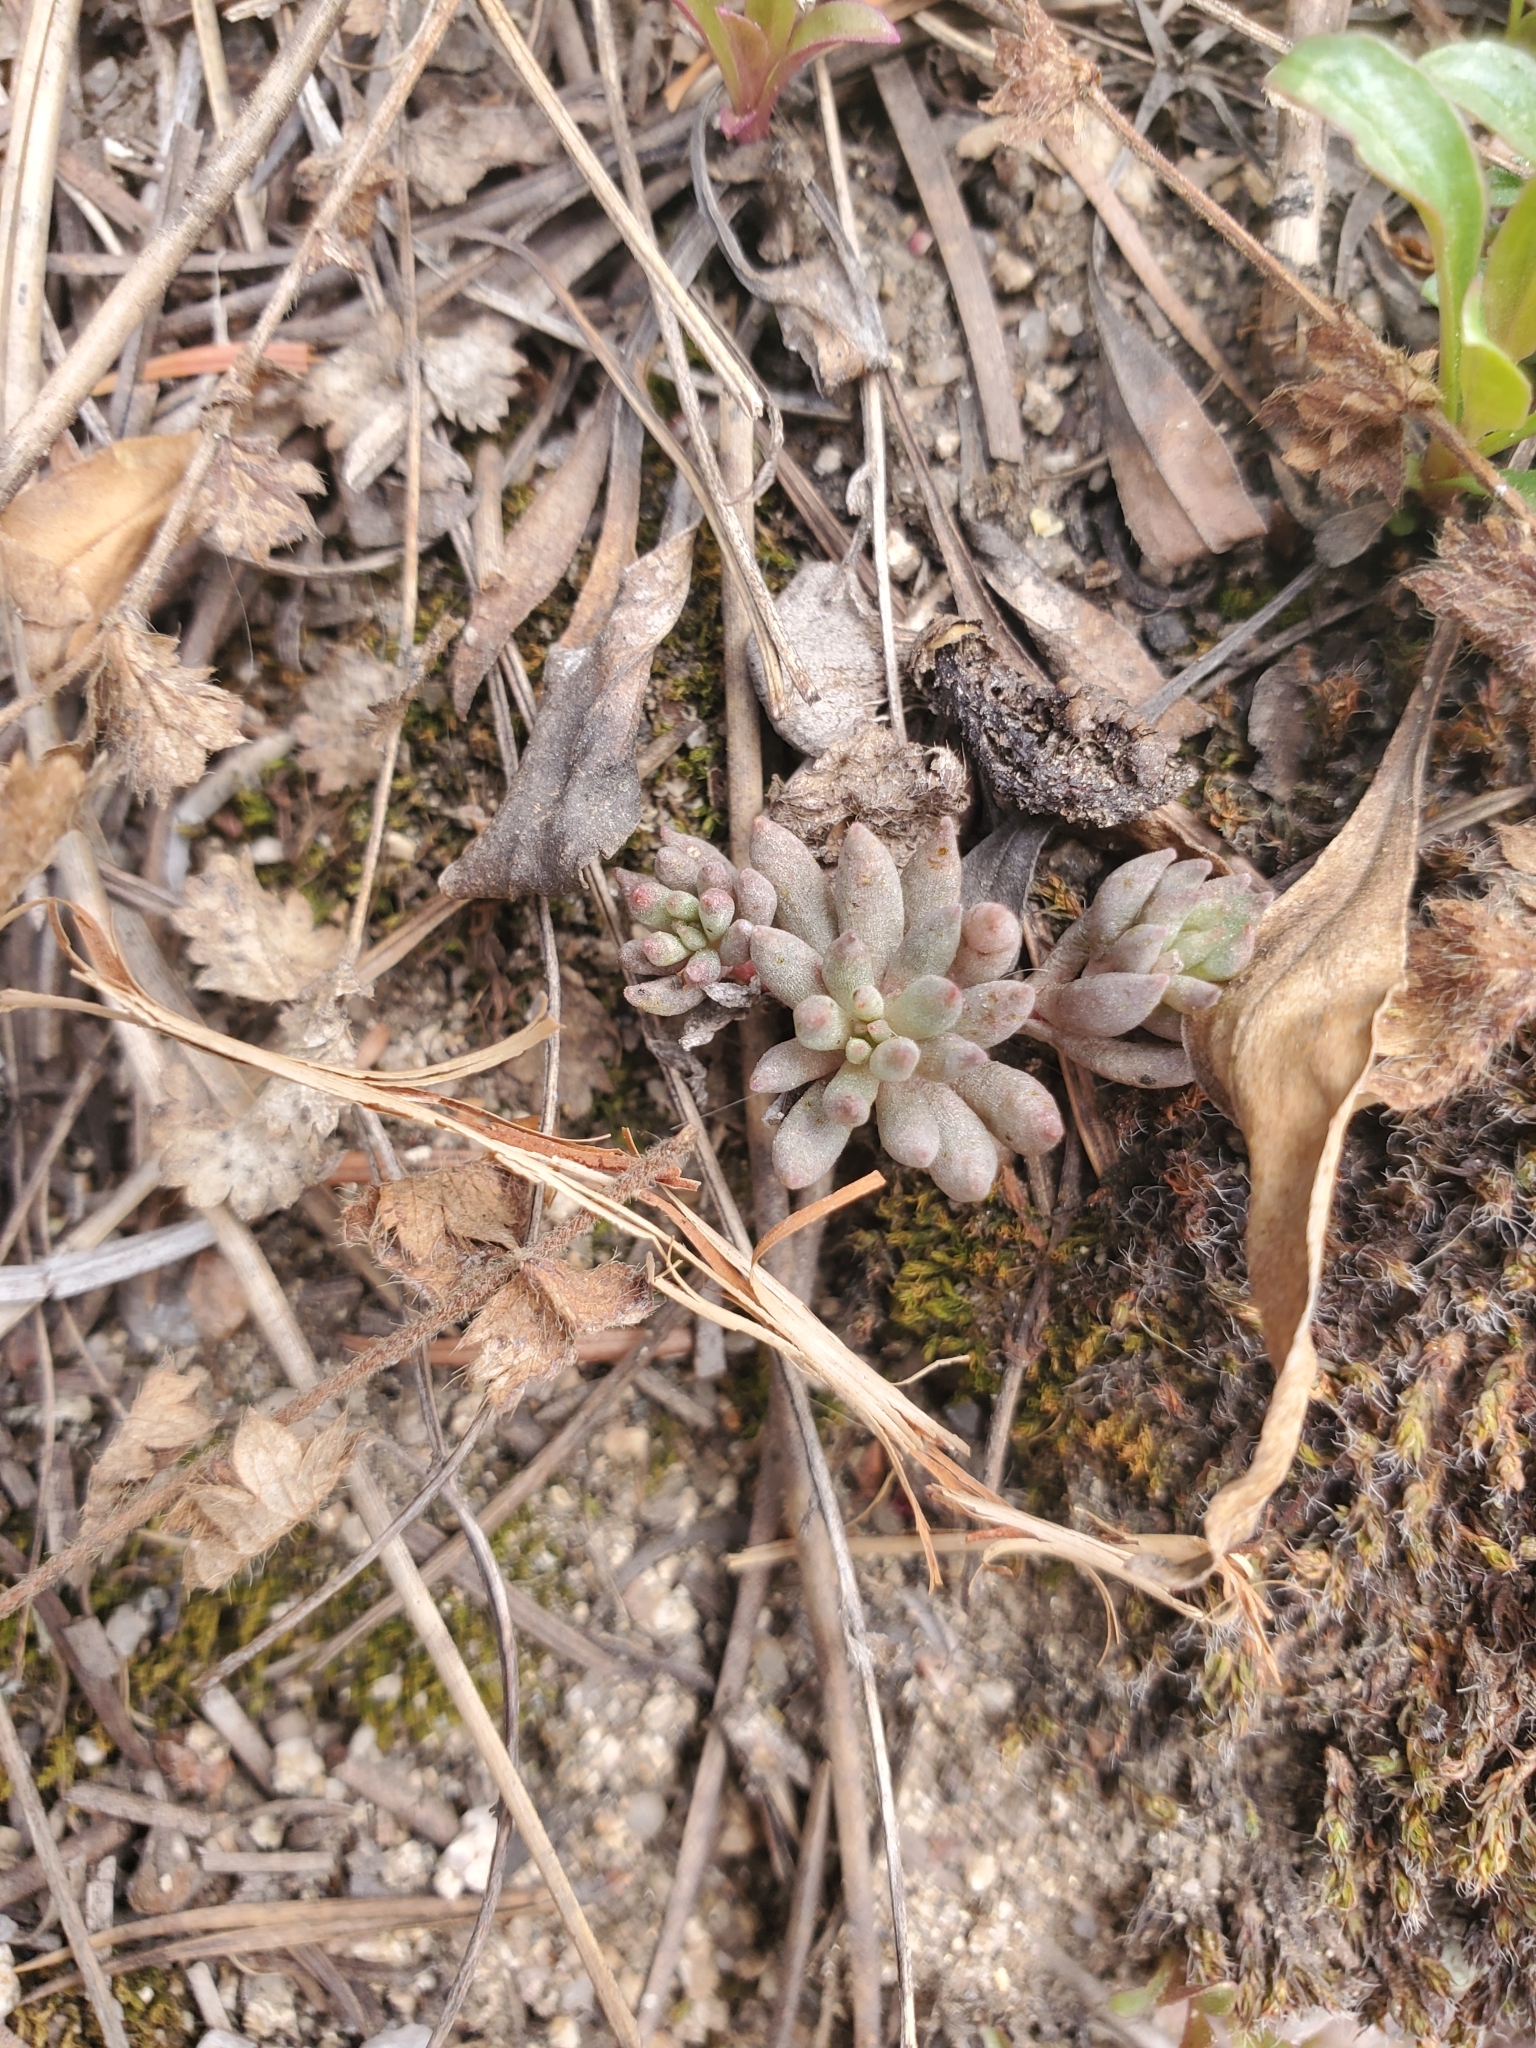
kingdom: Plantae
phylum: Tracheophyta
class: Magnoliopsida
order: Saxifragales
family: Crassulaceae
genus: Sedum
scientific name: Sedum lanceolatum
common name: Common stonecrop
